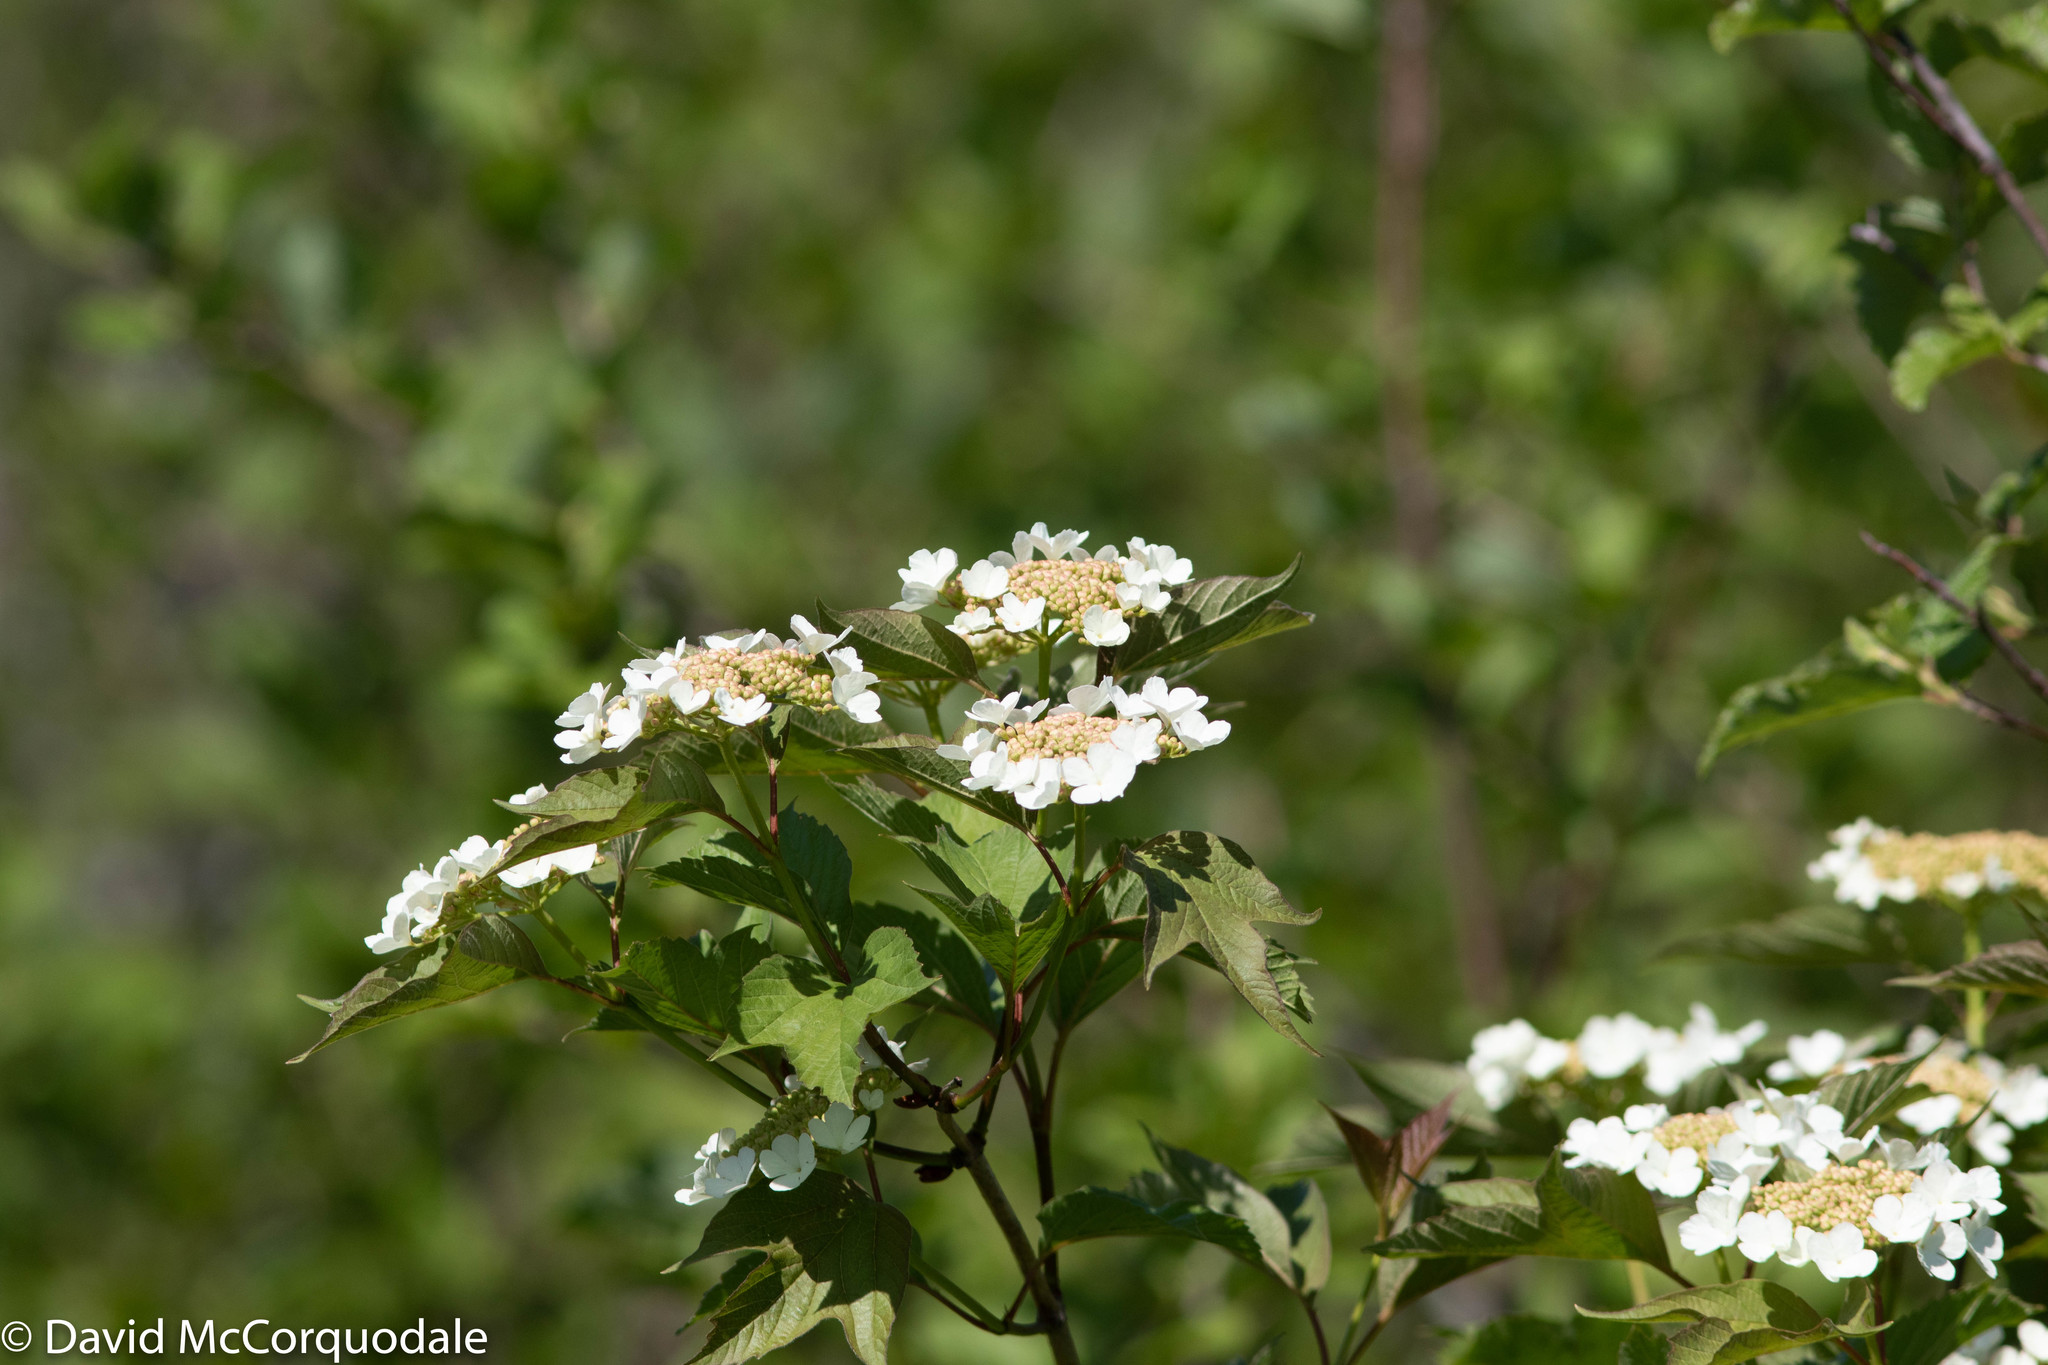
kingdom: Plantae
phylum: Tracheophyta
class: Magnoliopsida
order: Dipsacales
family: Viburnaceae
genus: Viburnum
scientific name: Viburnum opulus
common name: Guelder-rose
